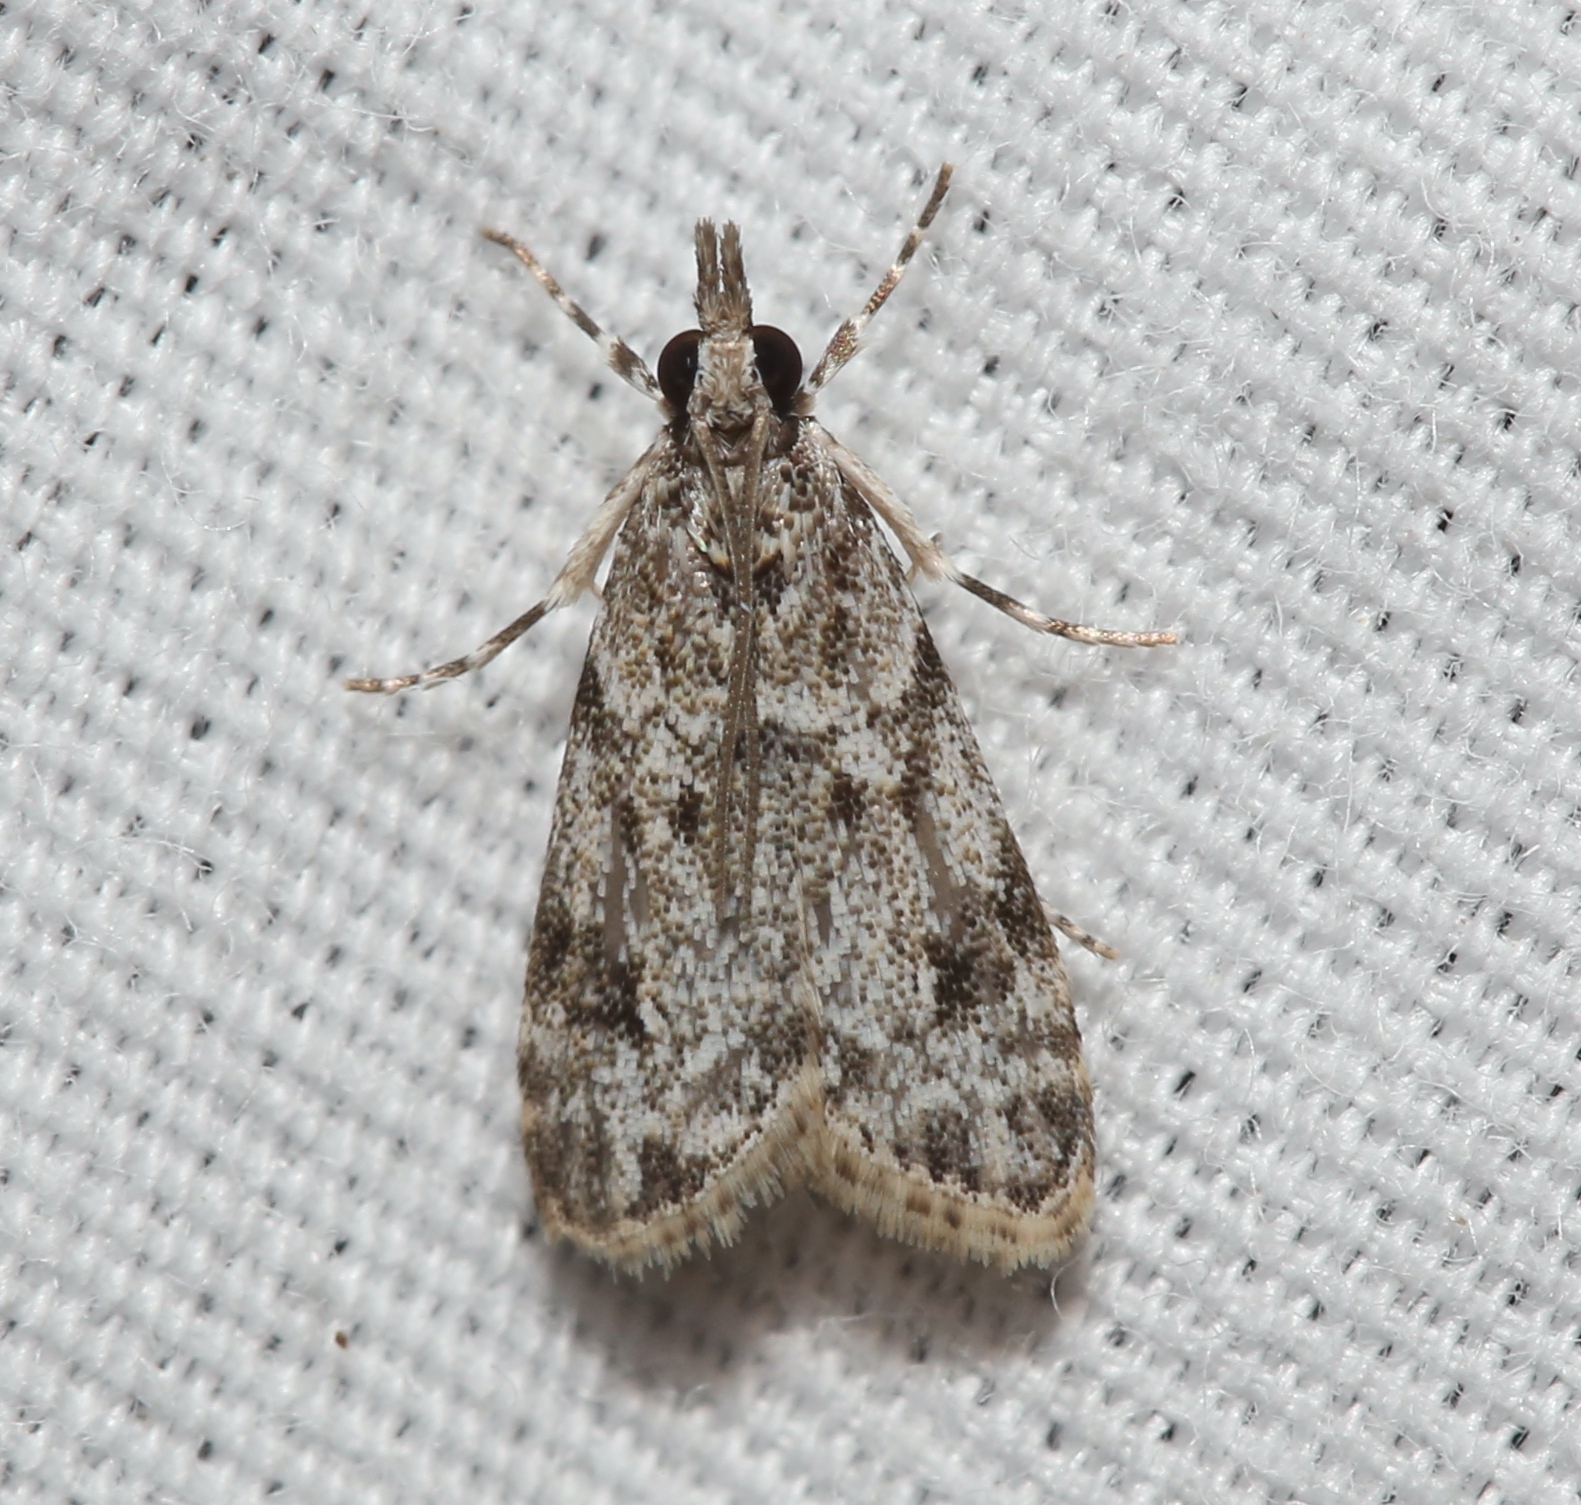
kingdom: Animalia
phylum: Arthropoda
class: Insecta
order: Lepidoptera
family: Crambidae
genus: Eudonia
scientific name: Eudonia heterosalis
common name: Mcdunnough's eudonia
